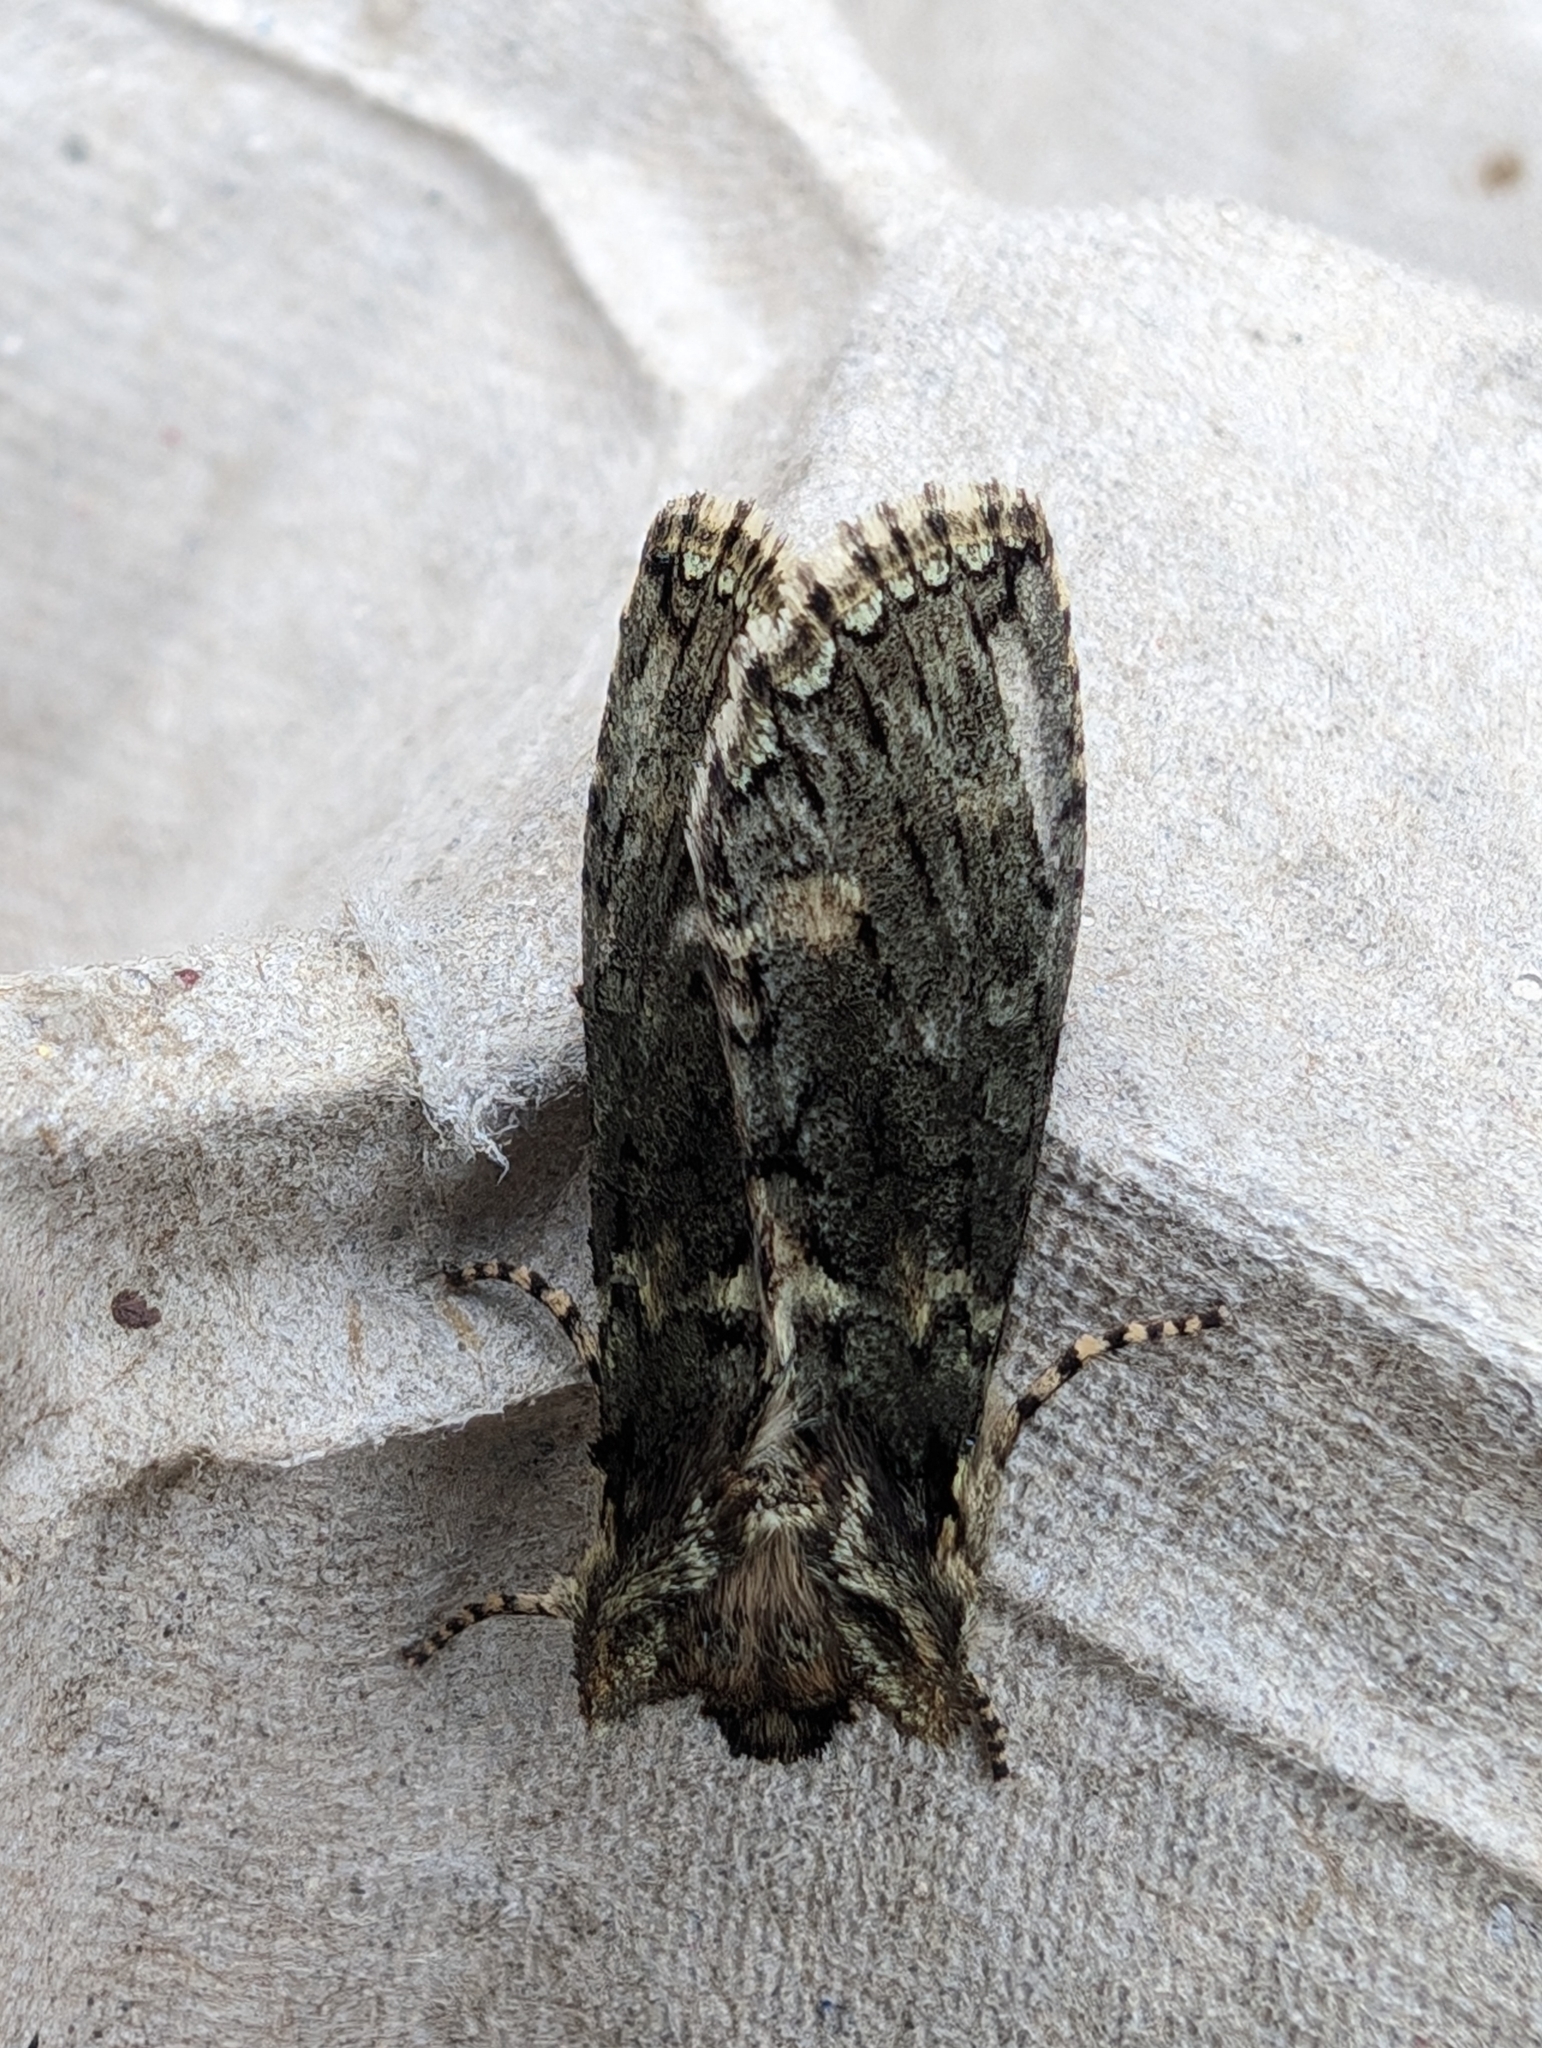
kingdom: Animalia
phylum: Arthropoda
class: Insecta
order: Lepidoptera
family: Drepanidae
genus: Polyploca
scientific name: Polyploca ridens
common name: Frosted green
